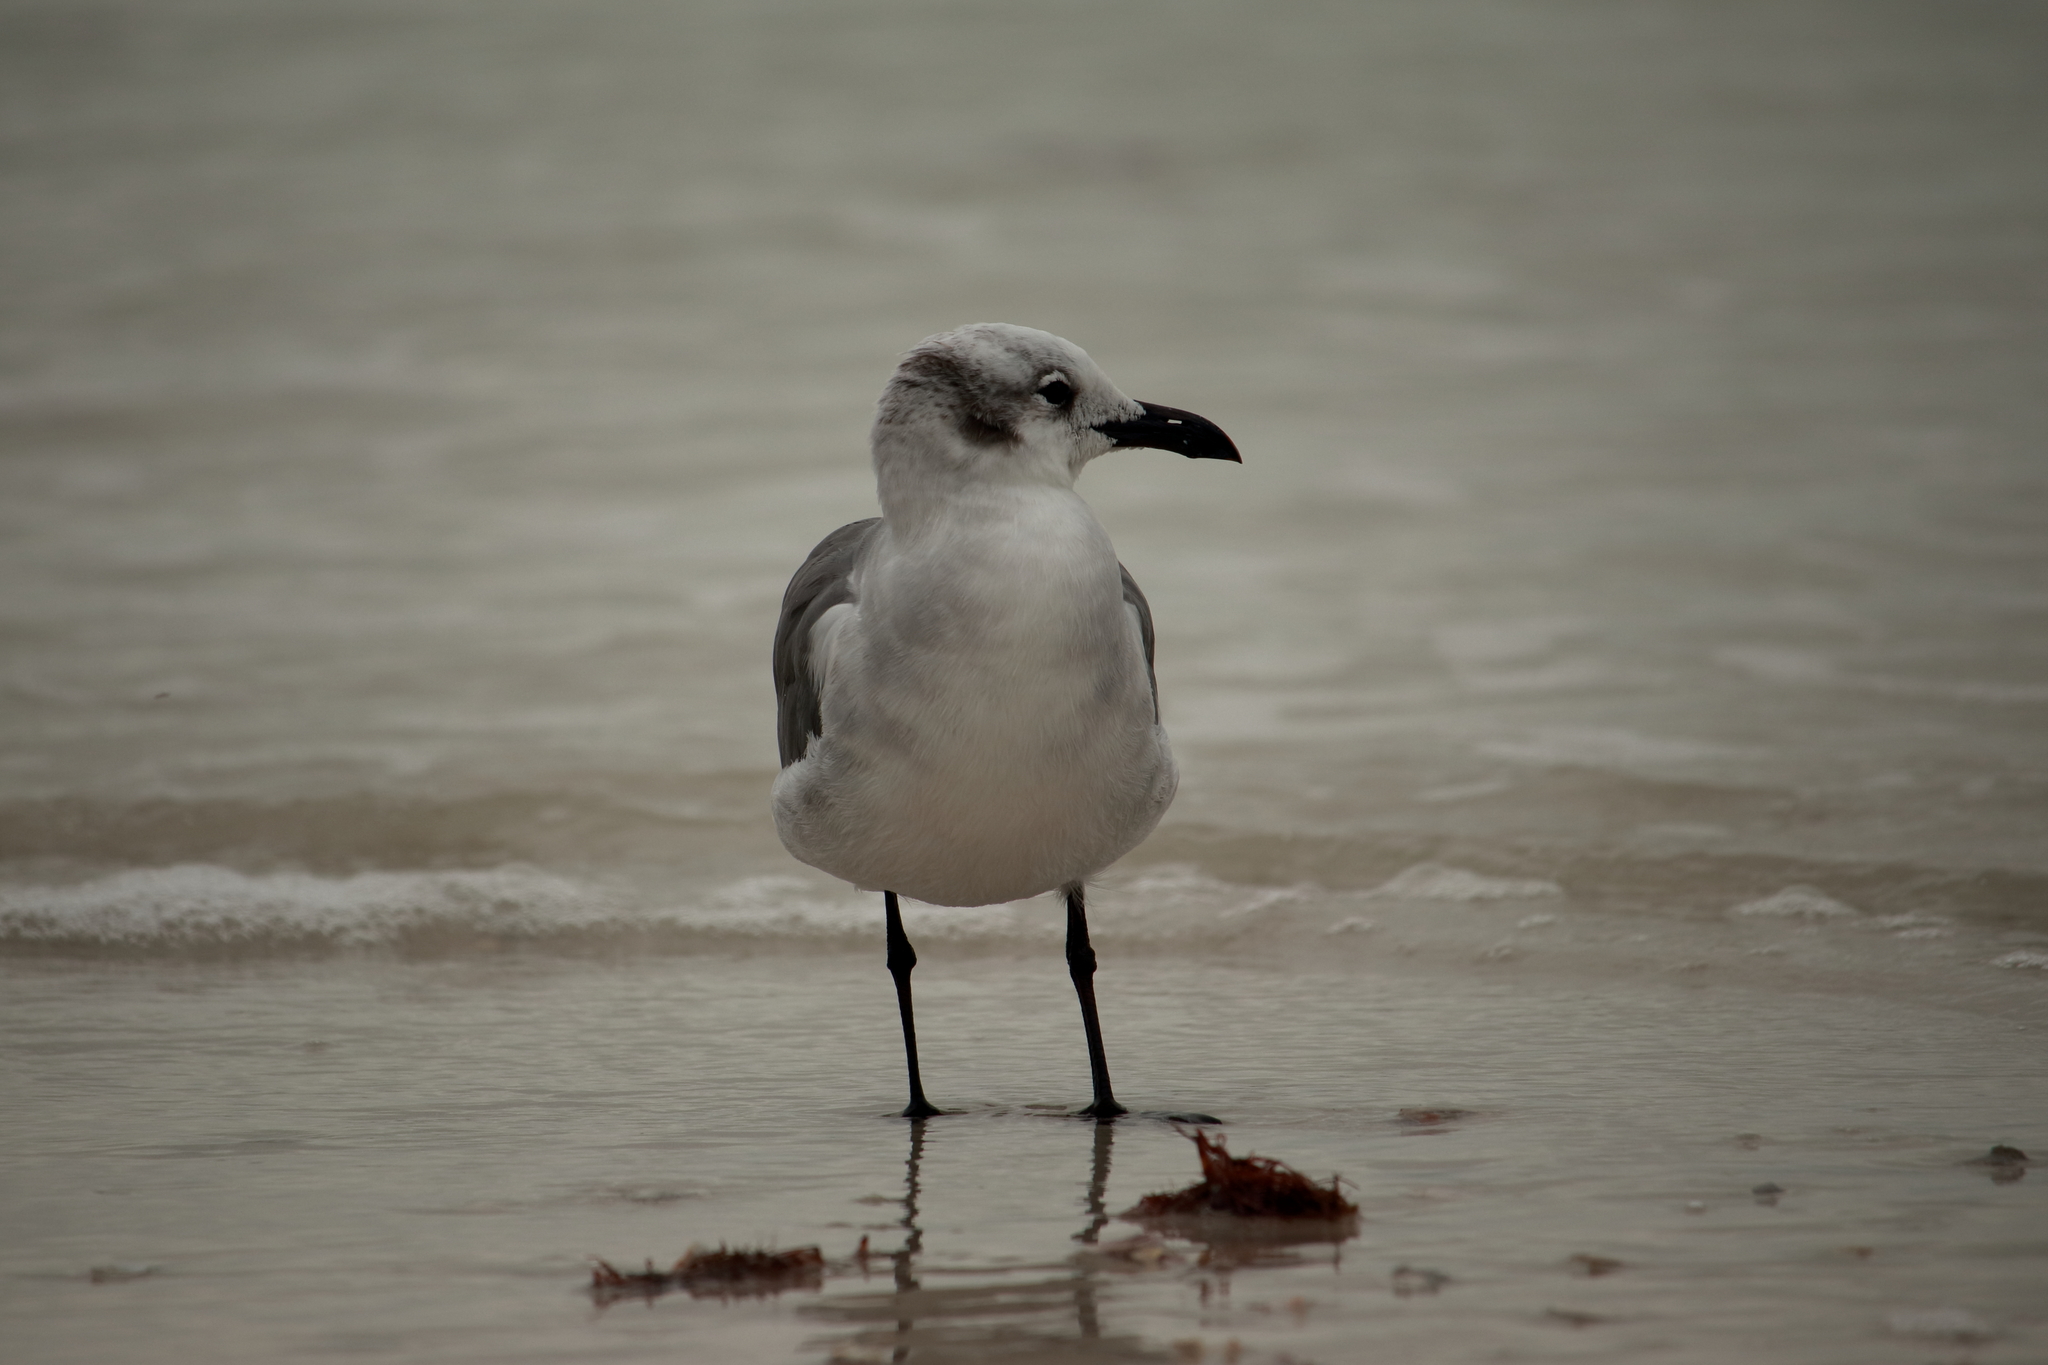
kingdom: Animalia
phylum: Chordata
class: Aves
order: Charadriiformes
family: Laridae
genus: Leucophaeus
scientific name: Leucophaeus atricilla
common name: Laughing gull
